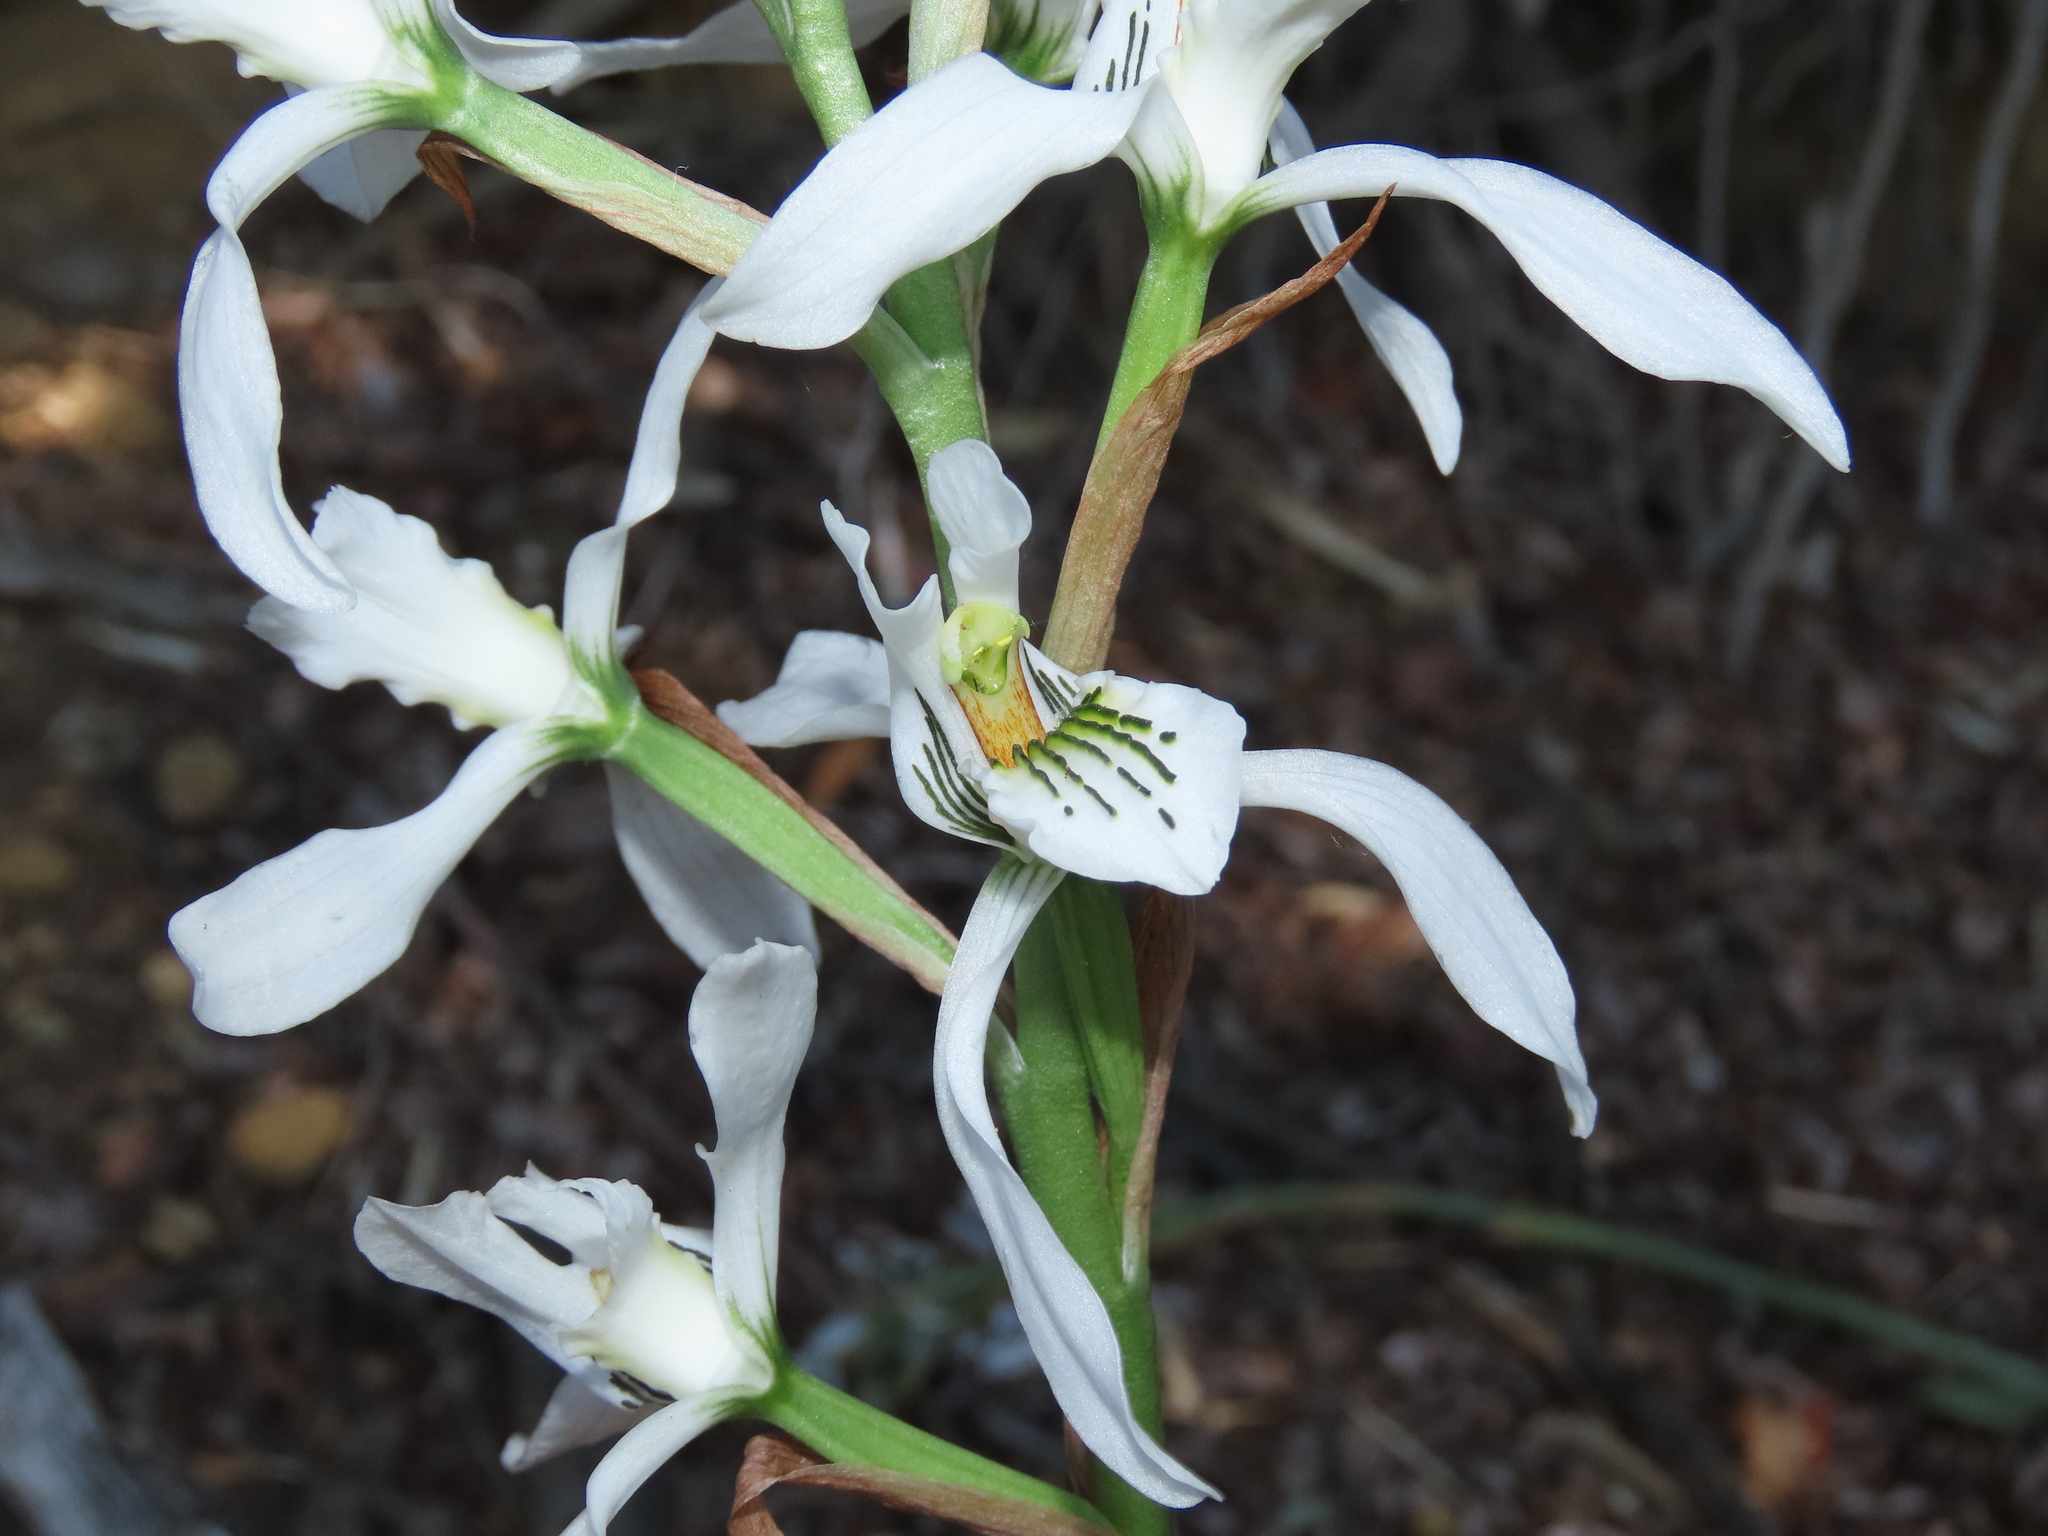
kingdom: Plantae
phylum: Tracheophyta
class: Liliopsida
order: Asparagales
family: Orchidaceae
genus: Chloraea
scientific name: Chloraea longipetala
